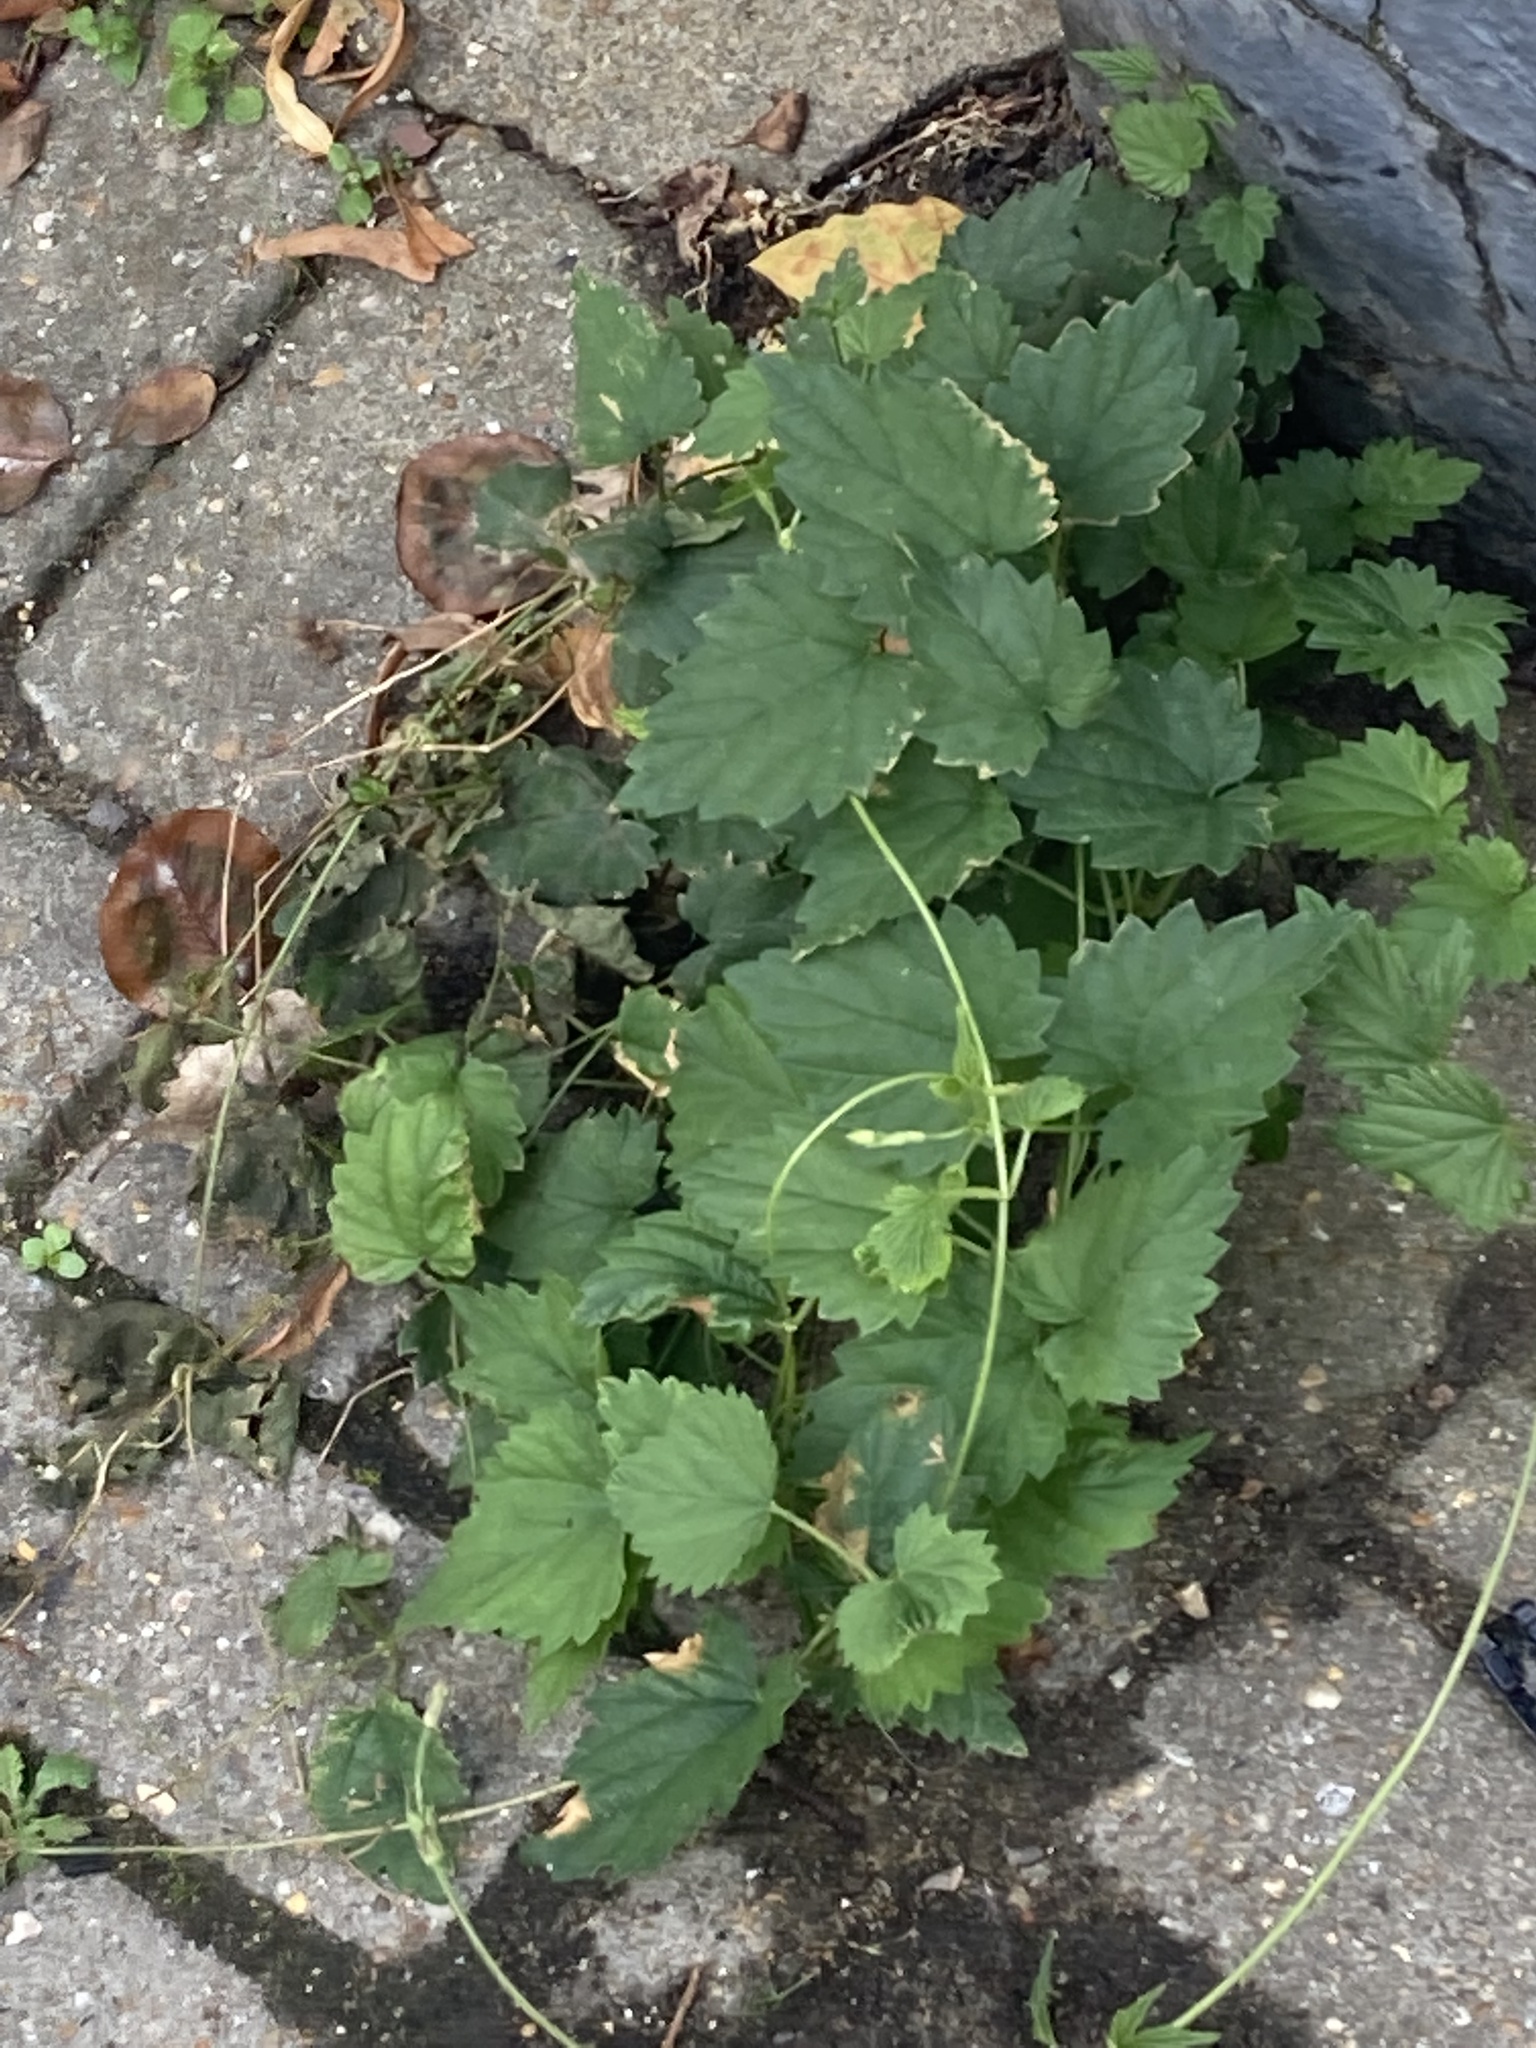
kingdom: Plantae
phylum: Tracheophyta
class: Magnoliopsida
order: Rosales
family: Cannabaceae
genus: Humulus
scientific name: Humulus lupulus
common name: Hop
